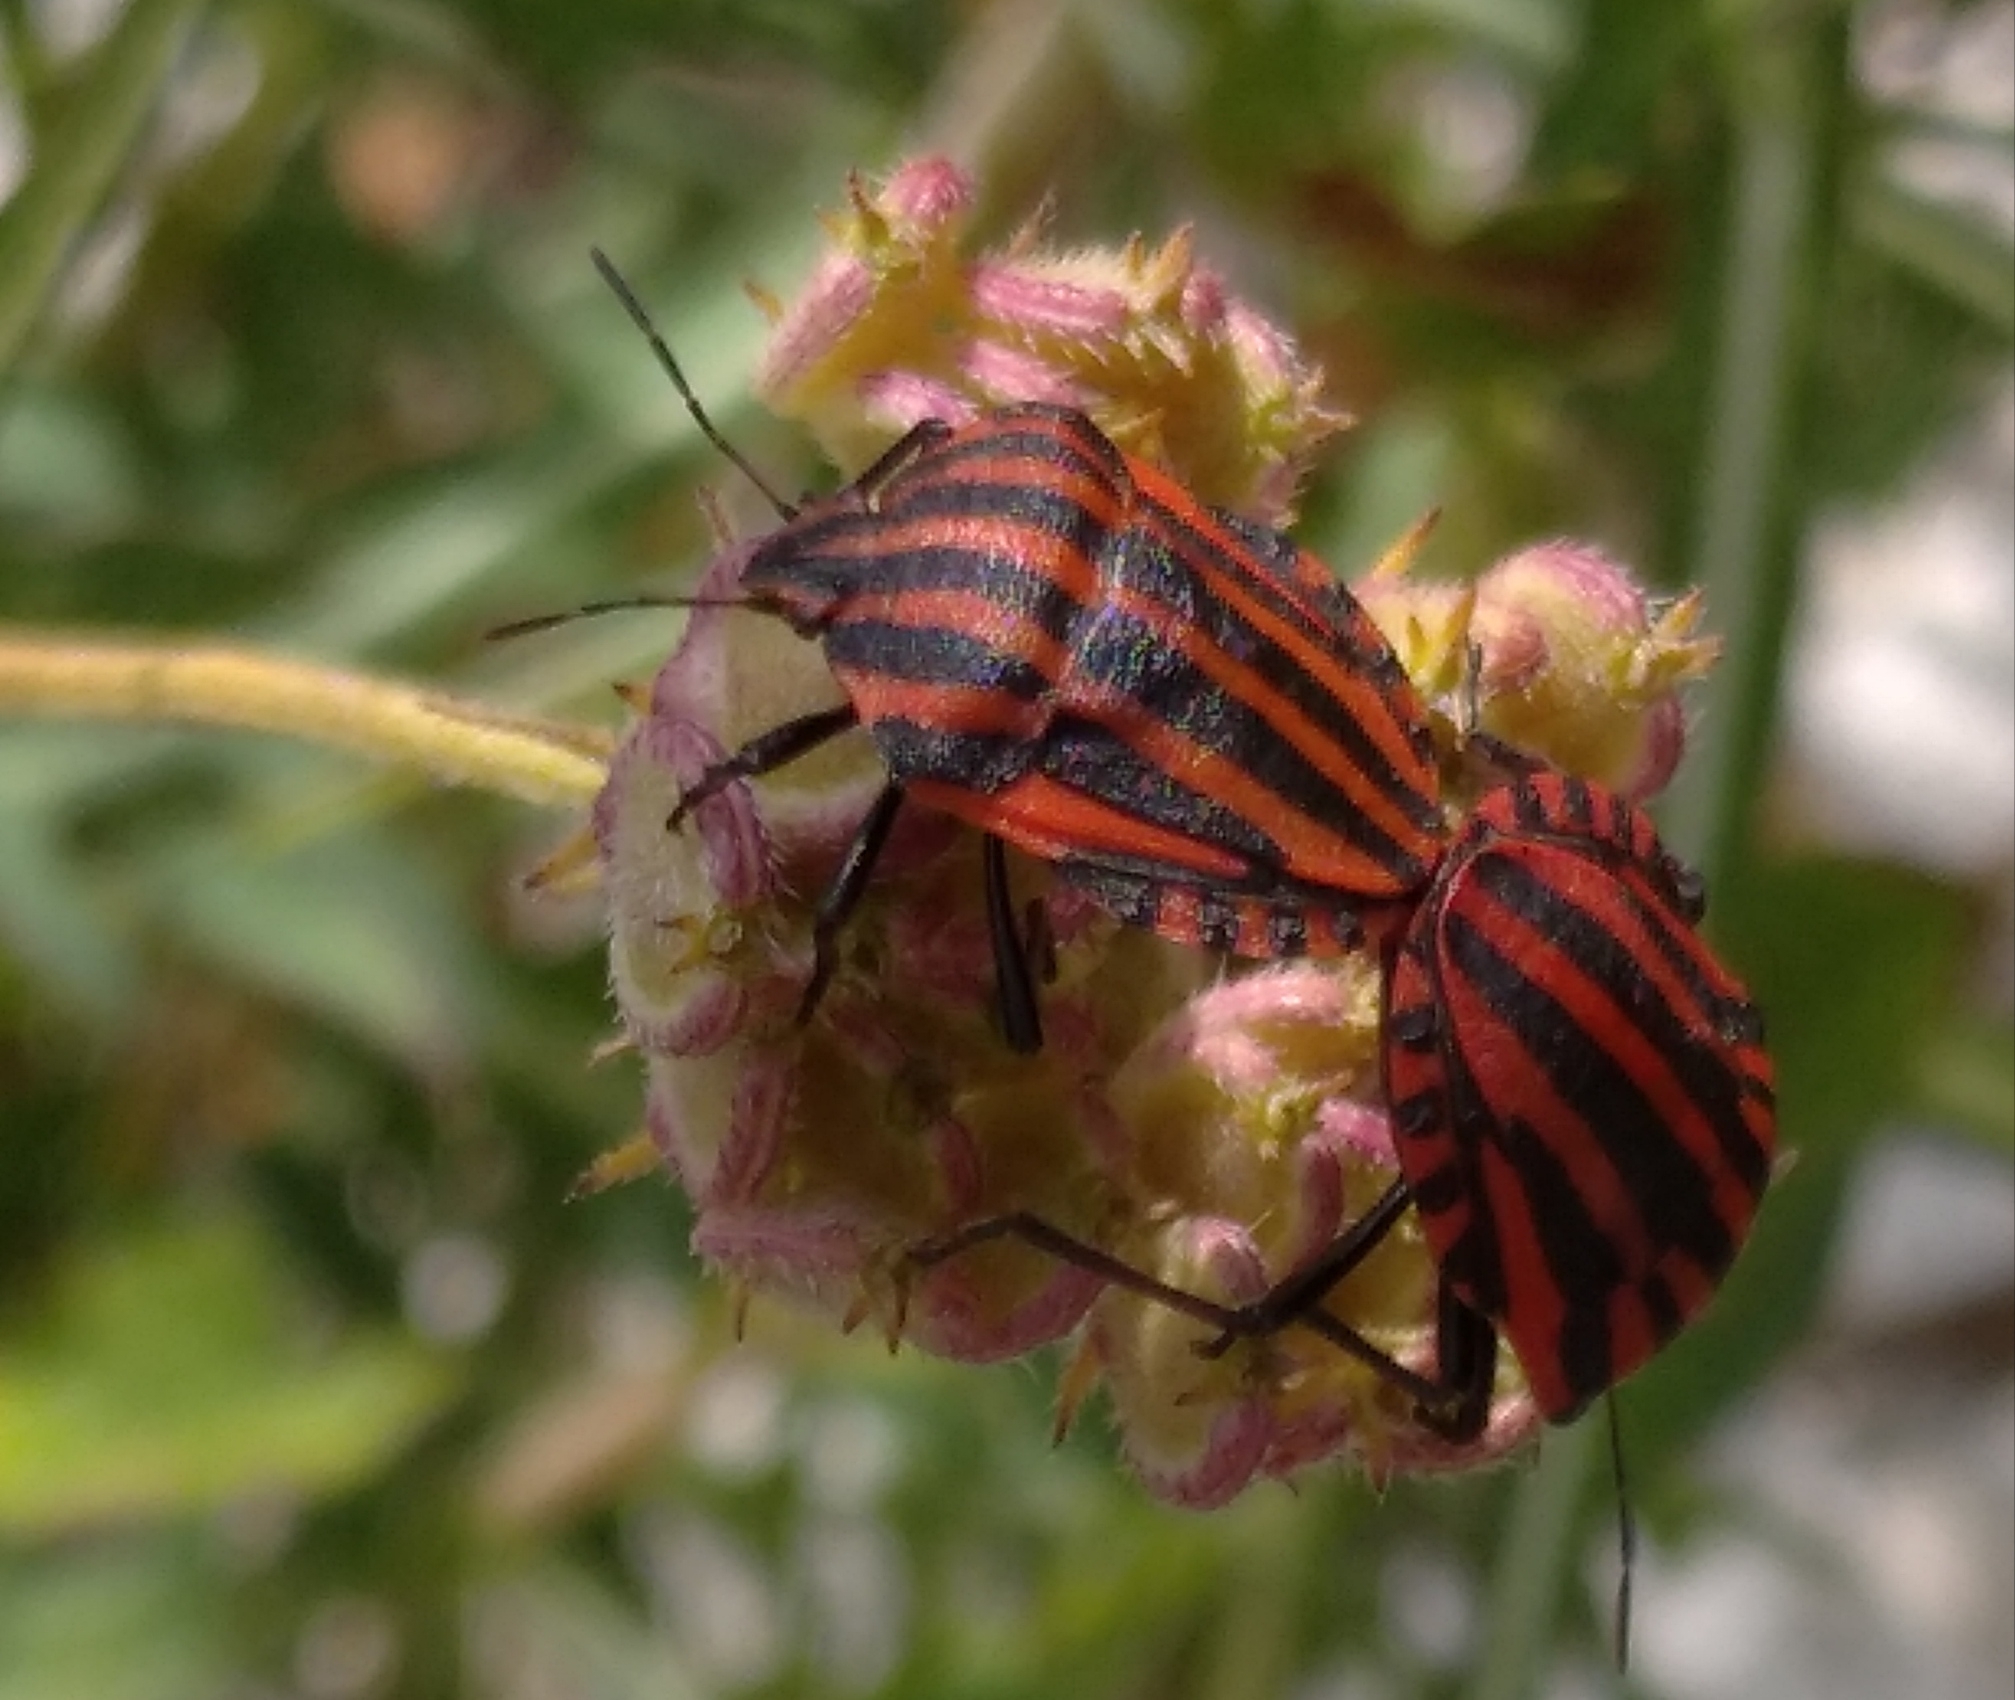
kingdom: Animalia
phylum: Arthropoda
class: Insecta
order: Hemiptera
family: Pentatomidae
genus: Graphosoma
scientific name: Graphosoma italicum
